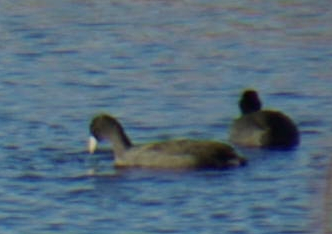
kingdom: Animalia
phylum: Chordata
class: Aves
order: Gruiformes
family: Rallidae
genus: Fulica
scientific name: Fulica americana
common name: American coot
